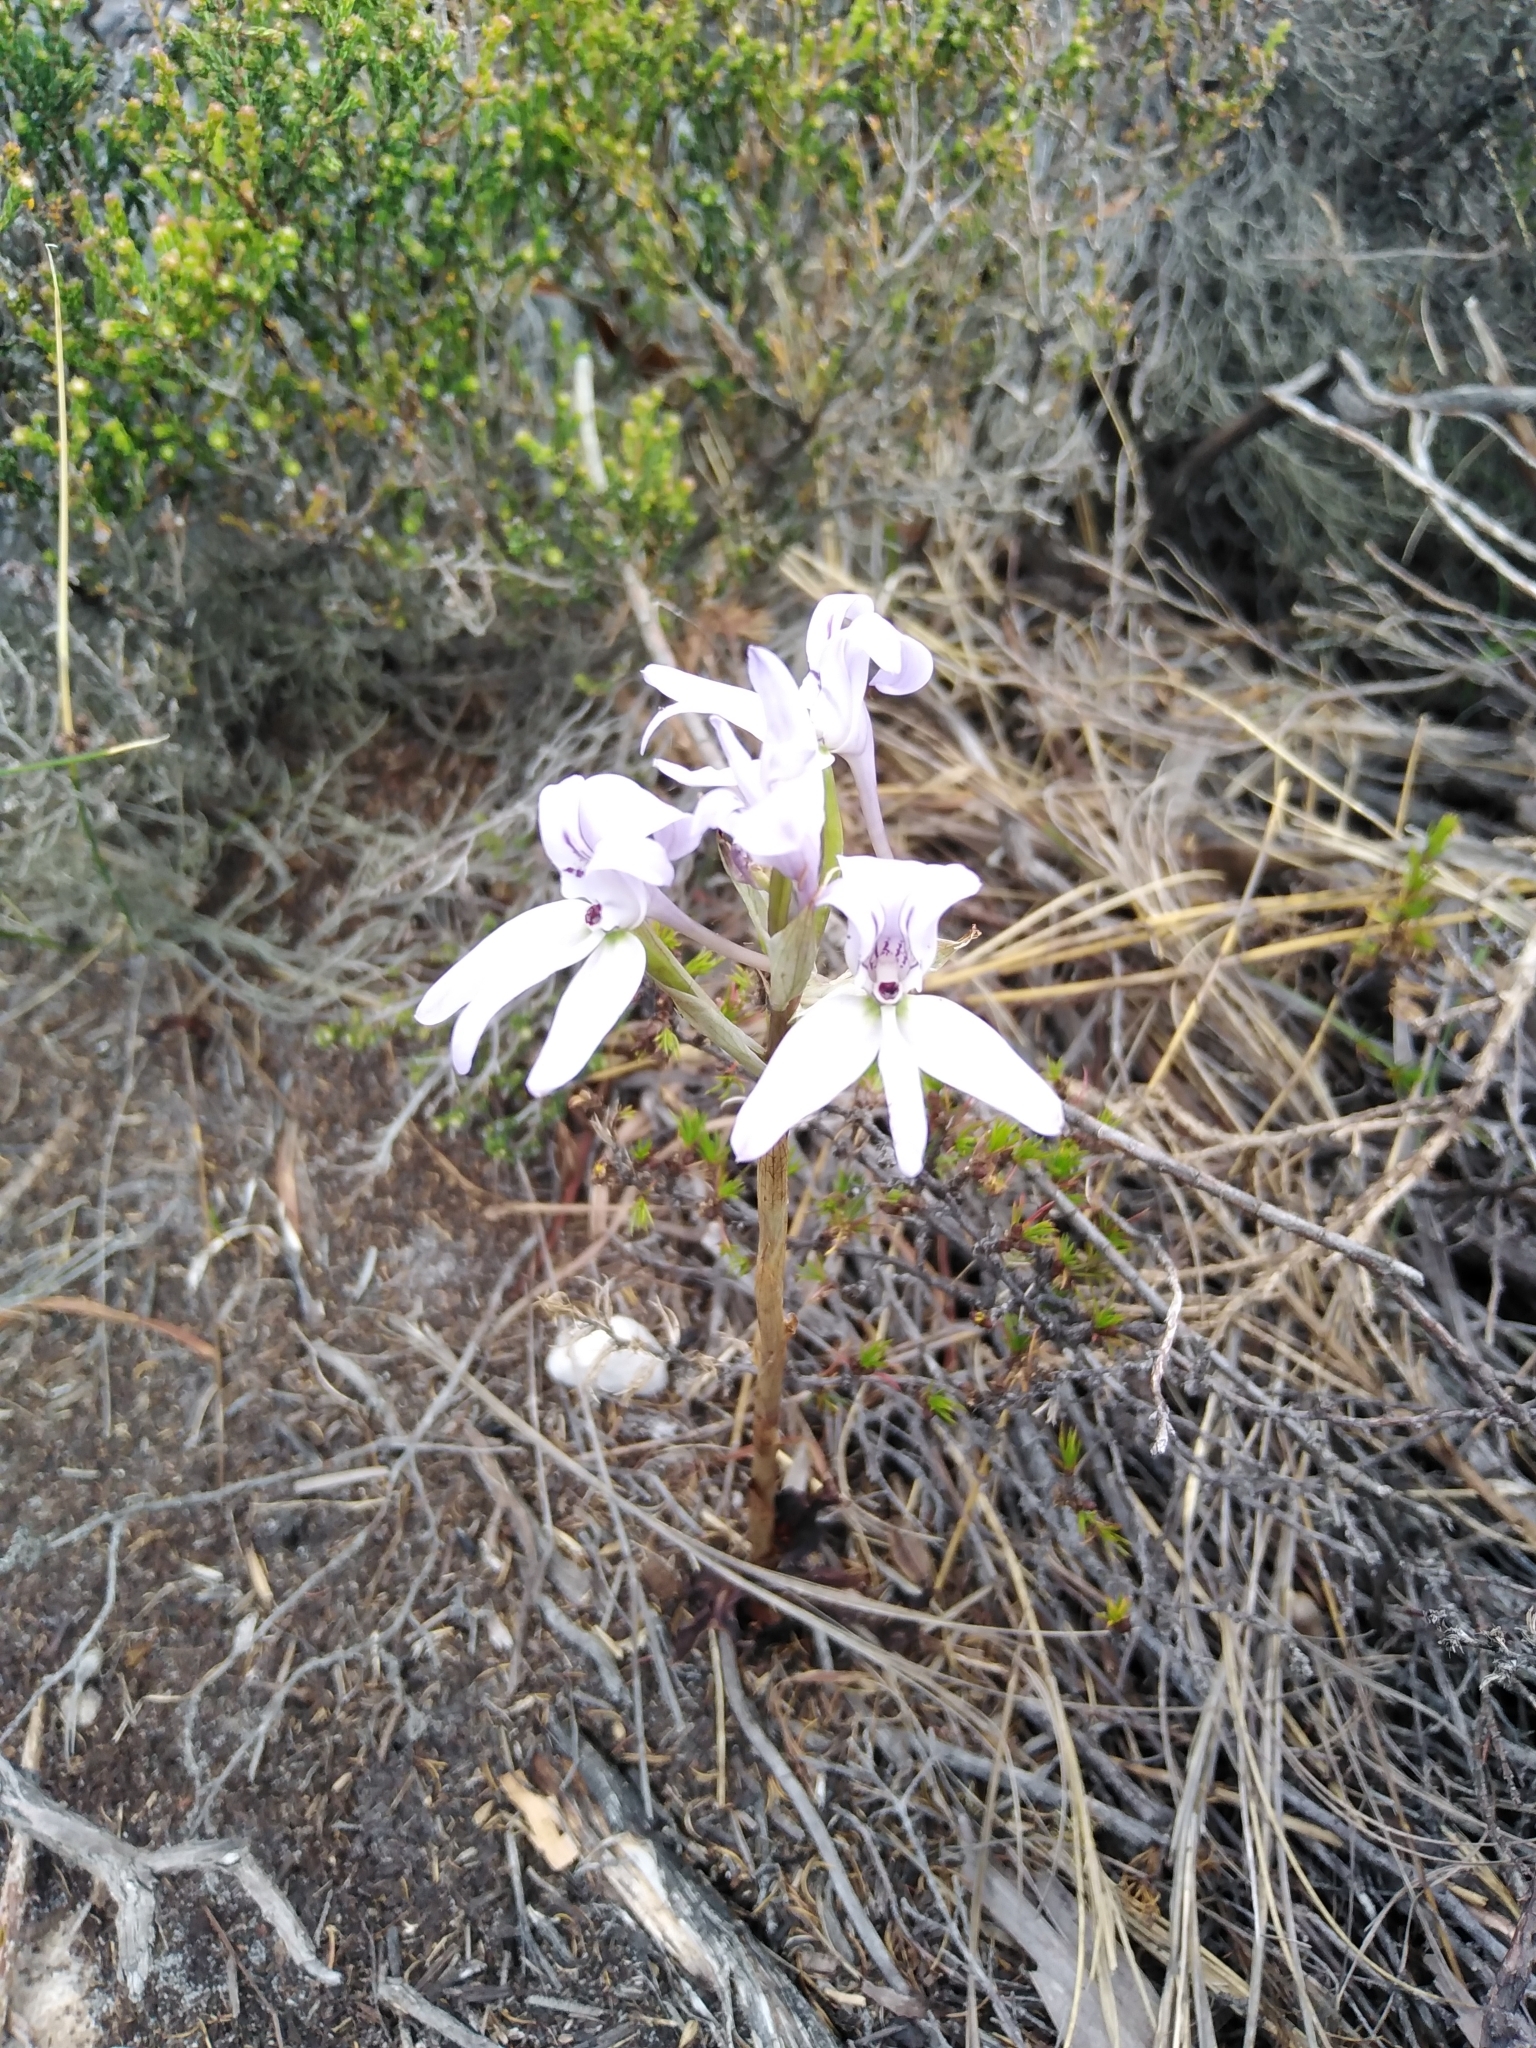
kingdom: Plantae
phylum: Tracheophyta
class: Liliopsida
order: Asparagales
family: Orchidaceae
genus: Disa
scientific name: Disa harveyana
